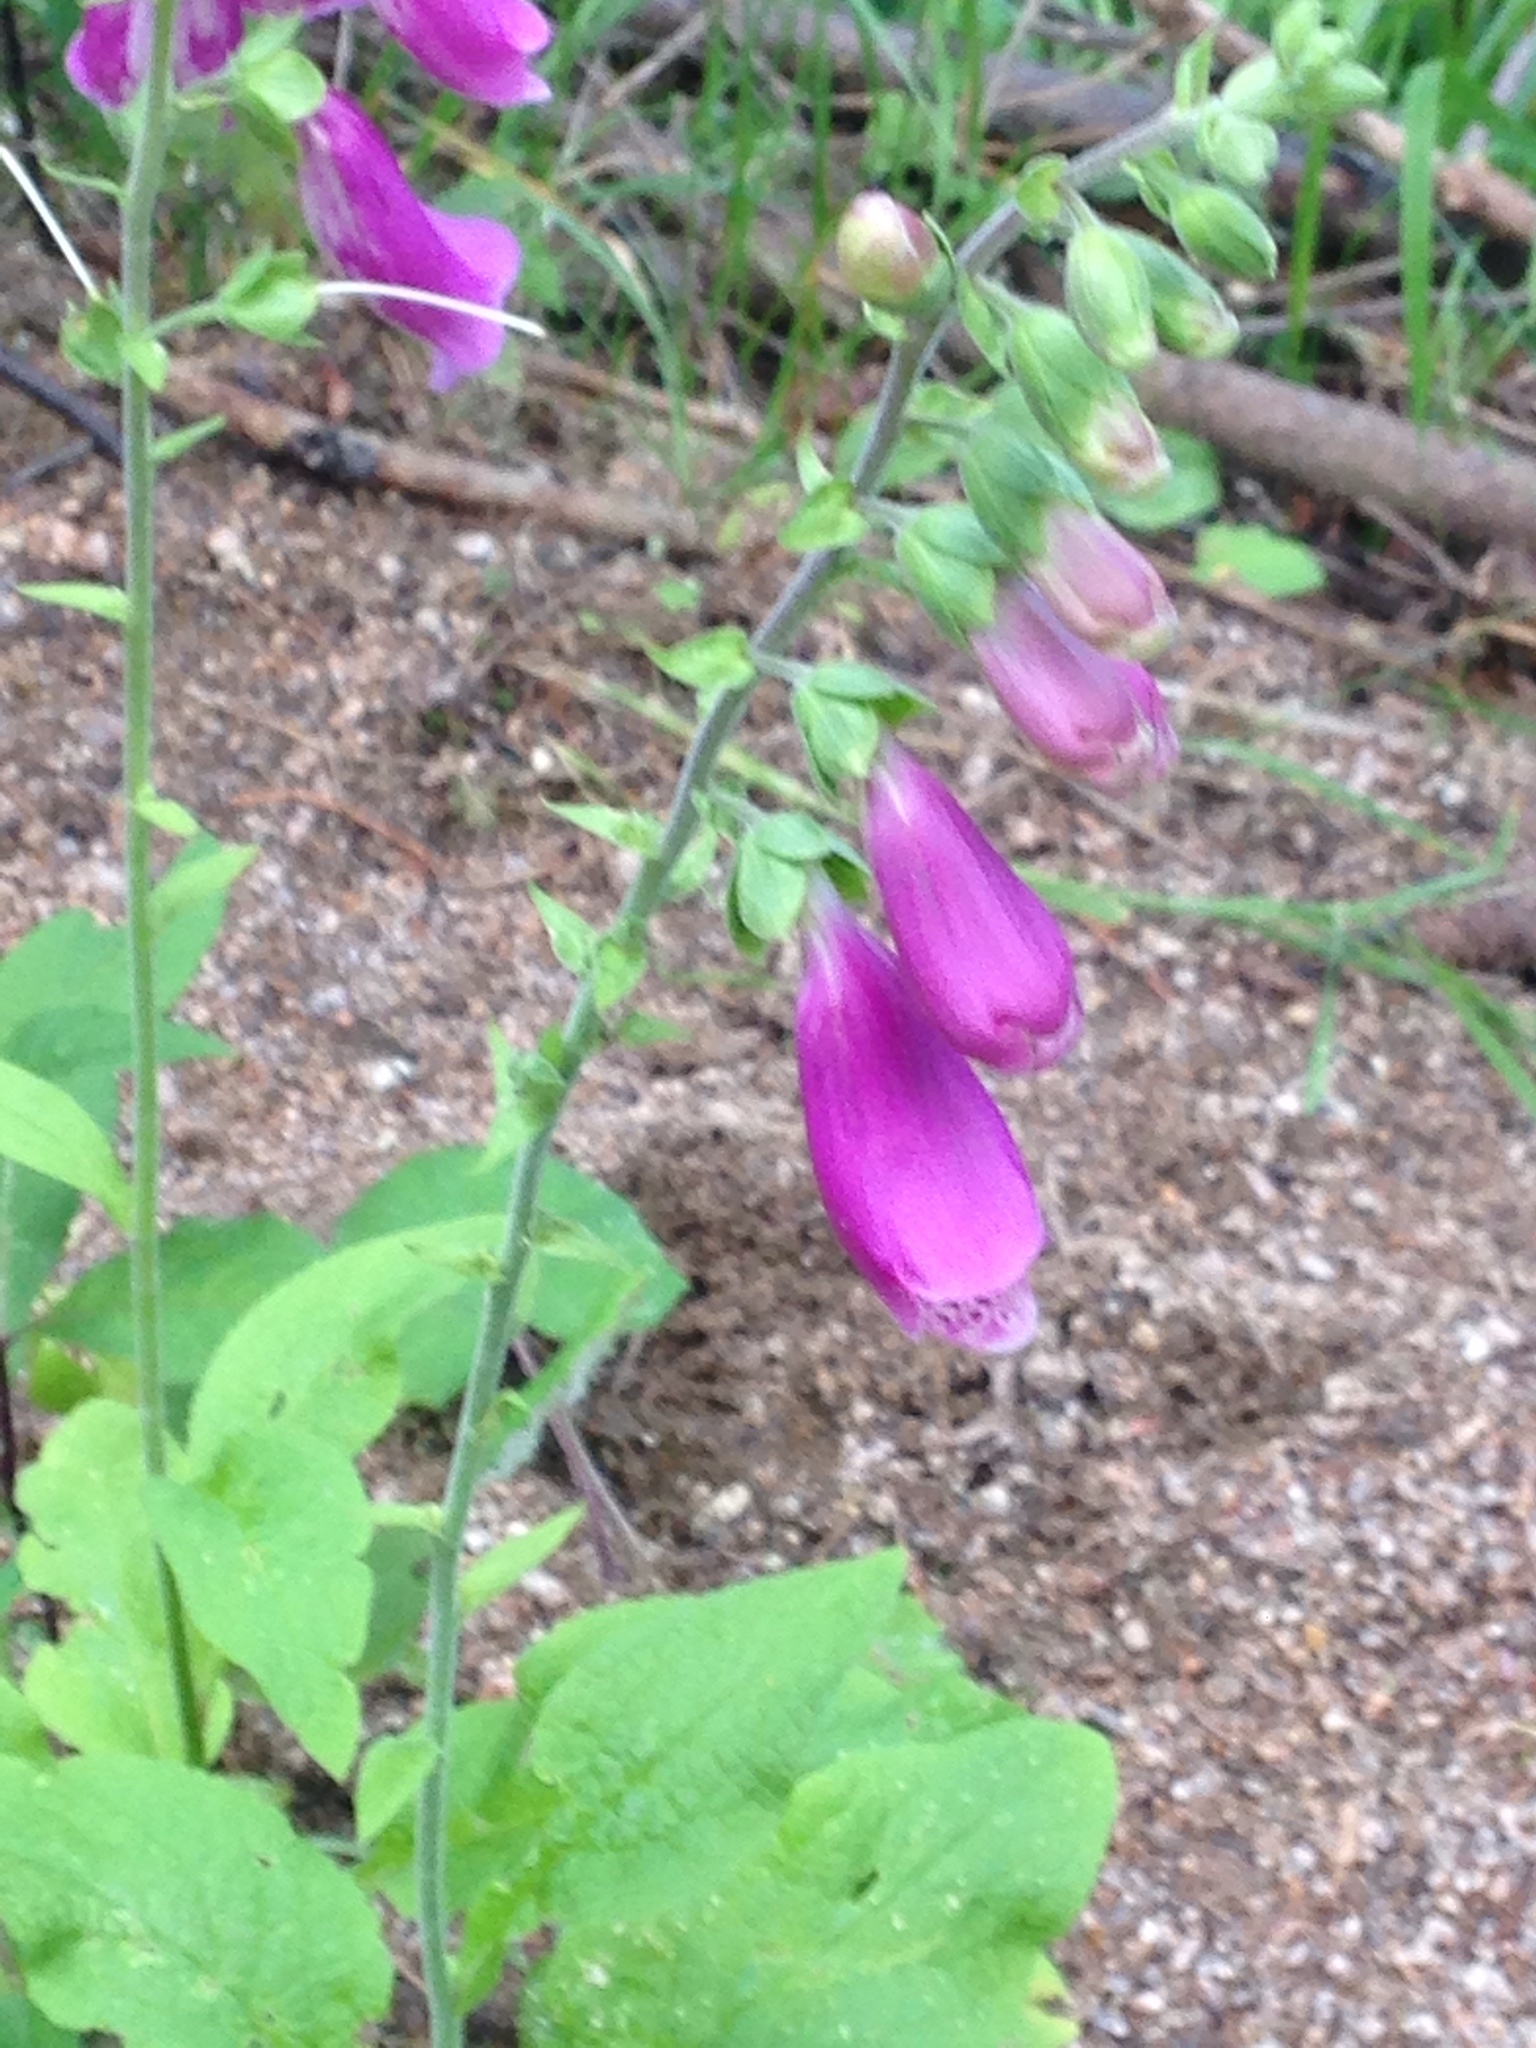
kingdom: Plantae
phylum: Tracheophyta
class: Magnoliopsida
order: Lamiales
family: Plantaginaceae
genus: Digitalis
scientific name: Digitalis purpurea
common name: Foxglove
